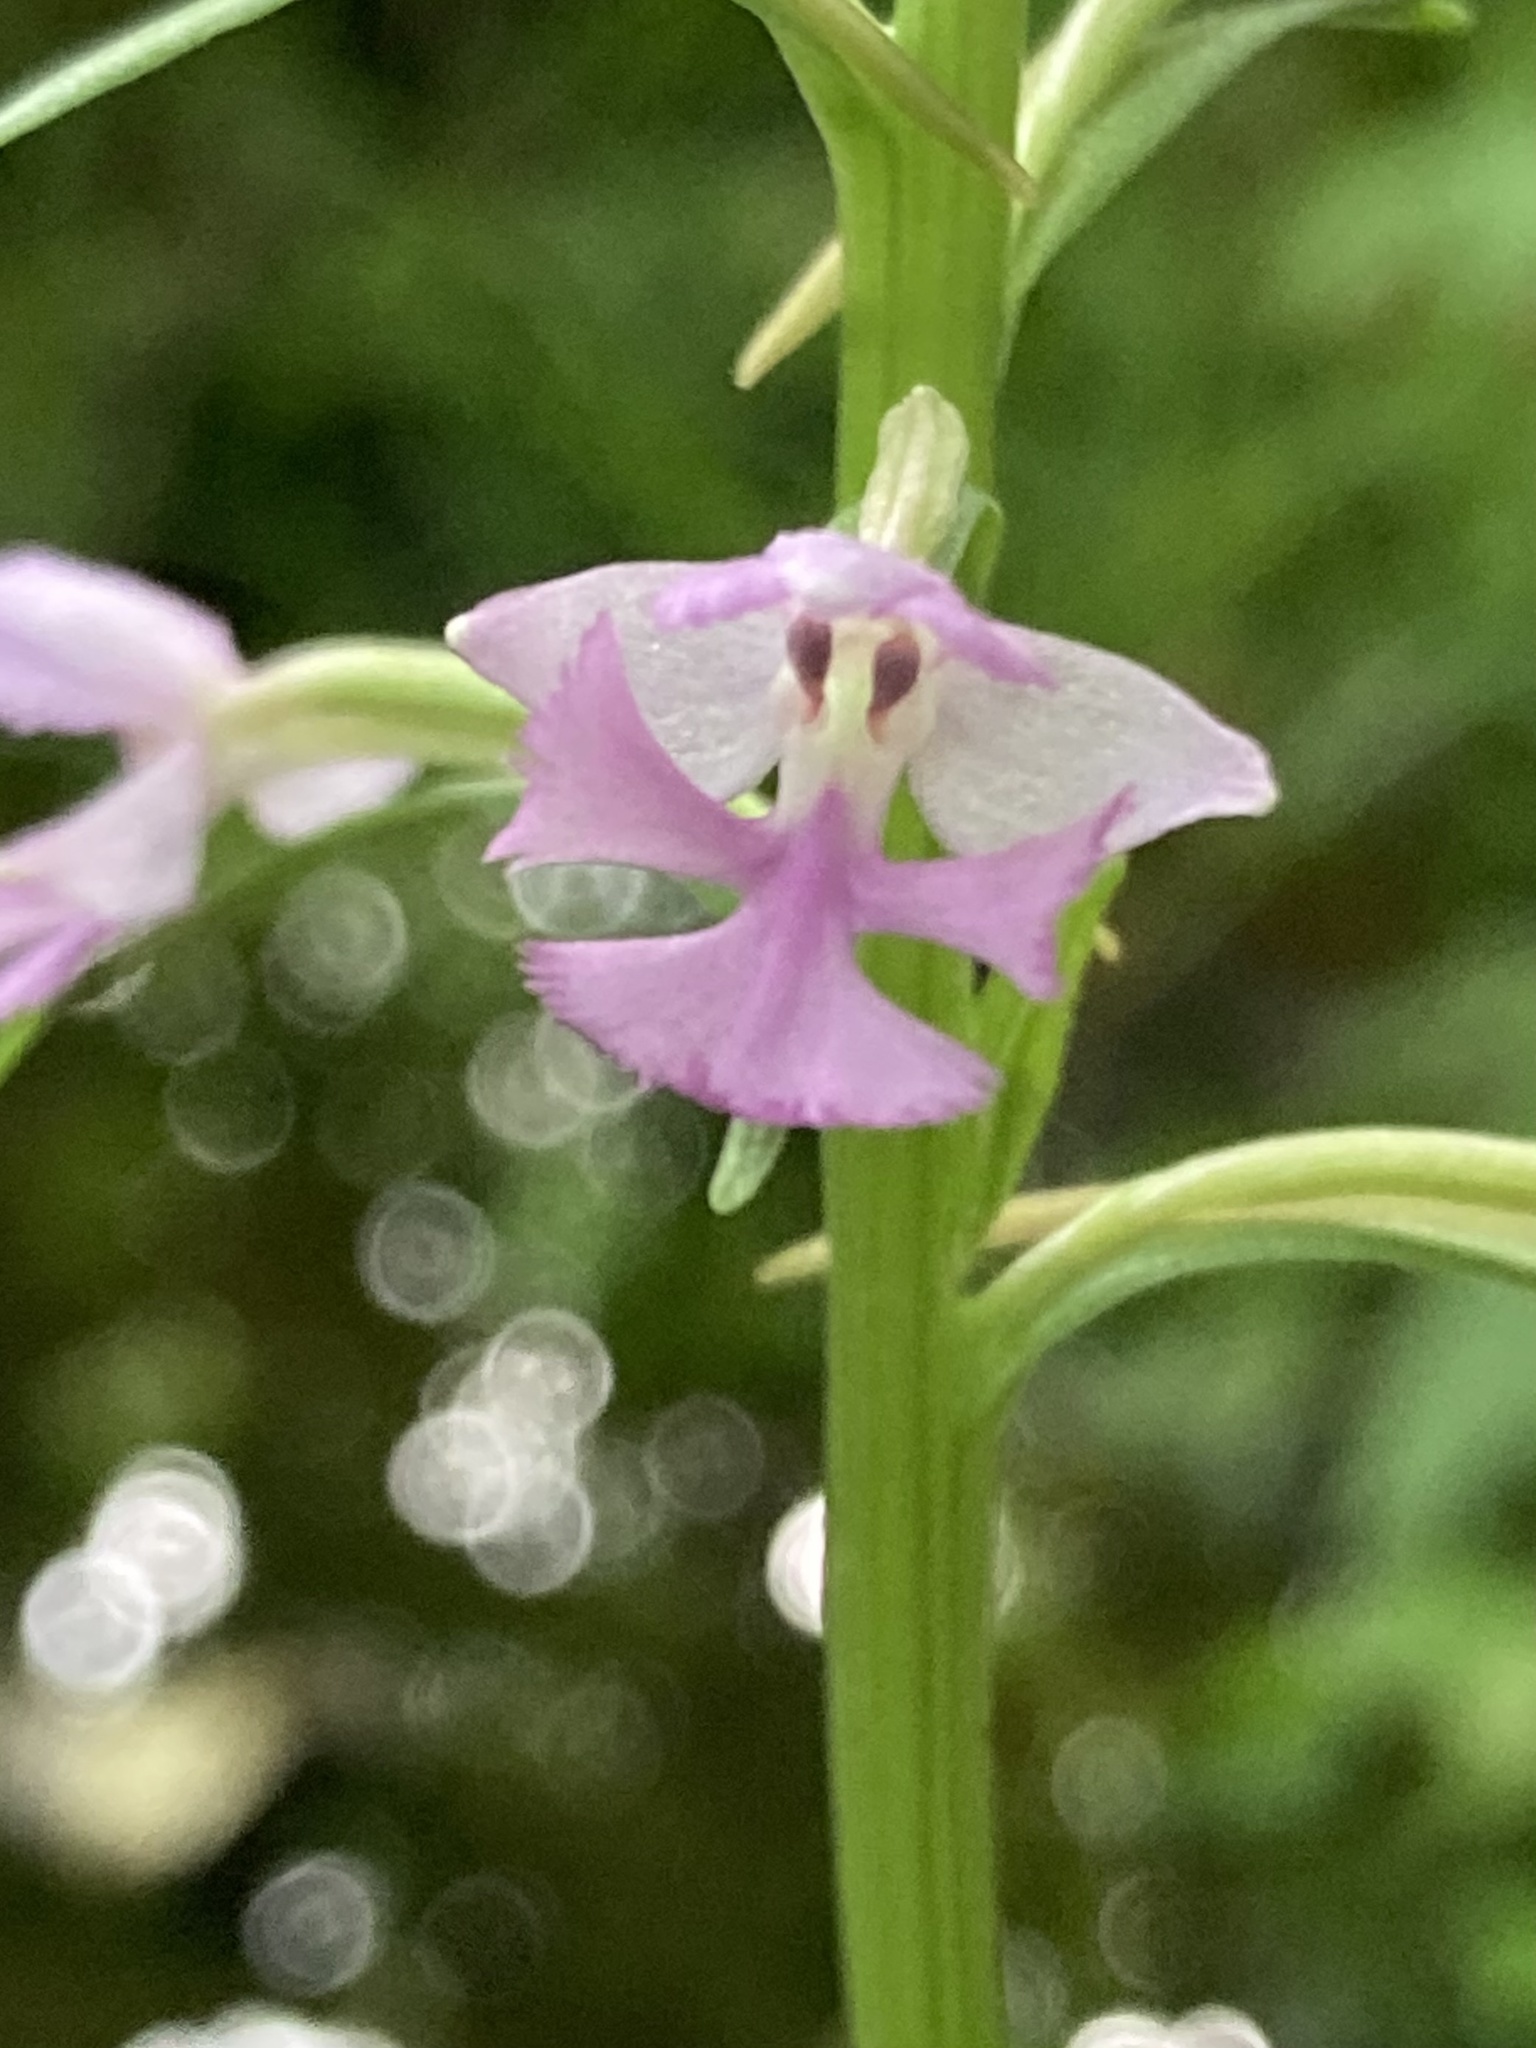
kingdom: Plantae
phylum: Tracheophyta
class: Liliopsida
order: Asparagales
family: Orchidaceae
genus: Platanthera
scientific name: Platanthera psycodes
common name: Lesser purple fringed orchid
